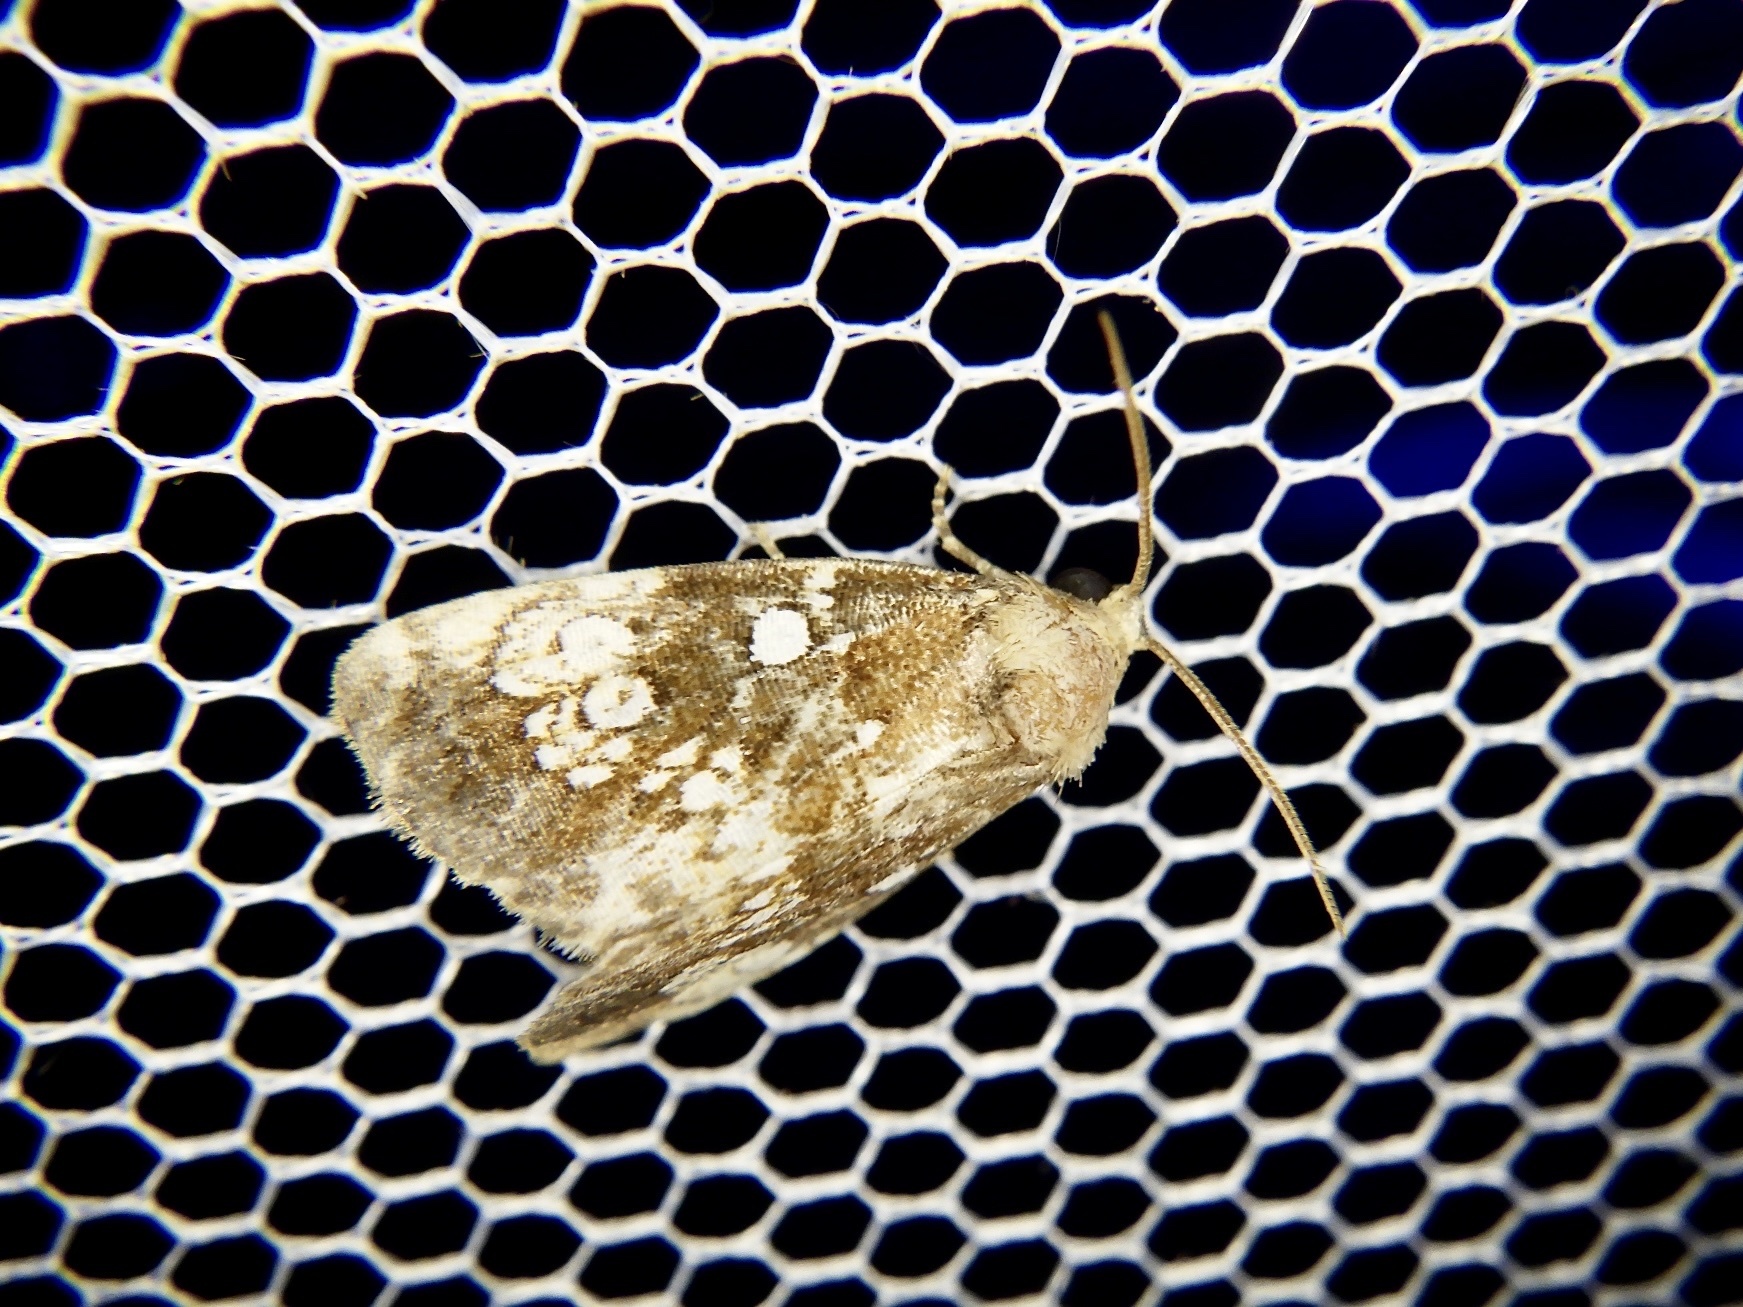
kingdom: Animalia
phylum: Arthropoda
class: Insecta
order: Lepidoptera
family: Noctuidae
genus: Dysmilichia
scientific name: Dysmilichia gemella
